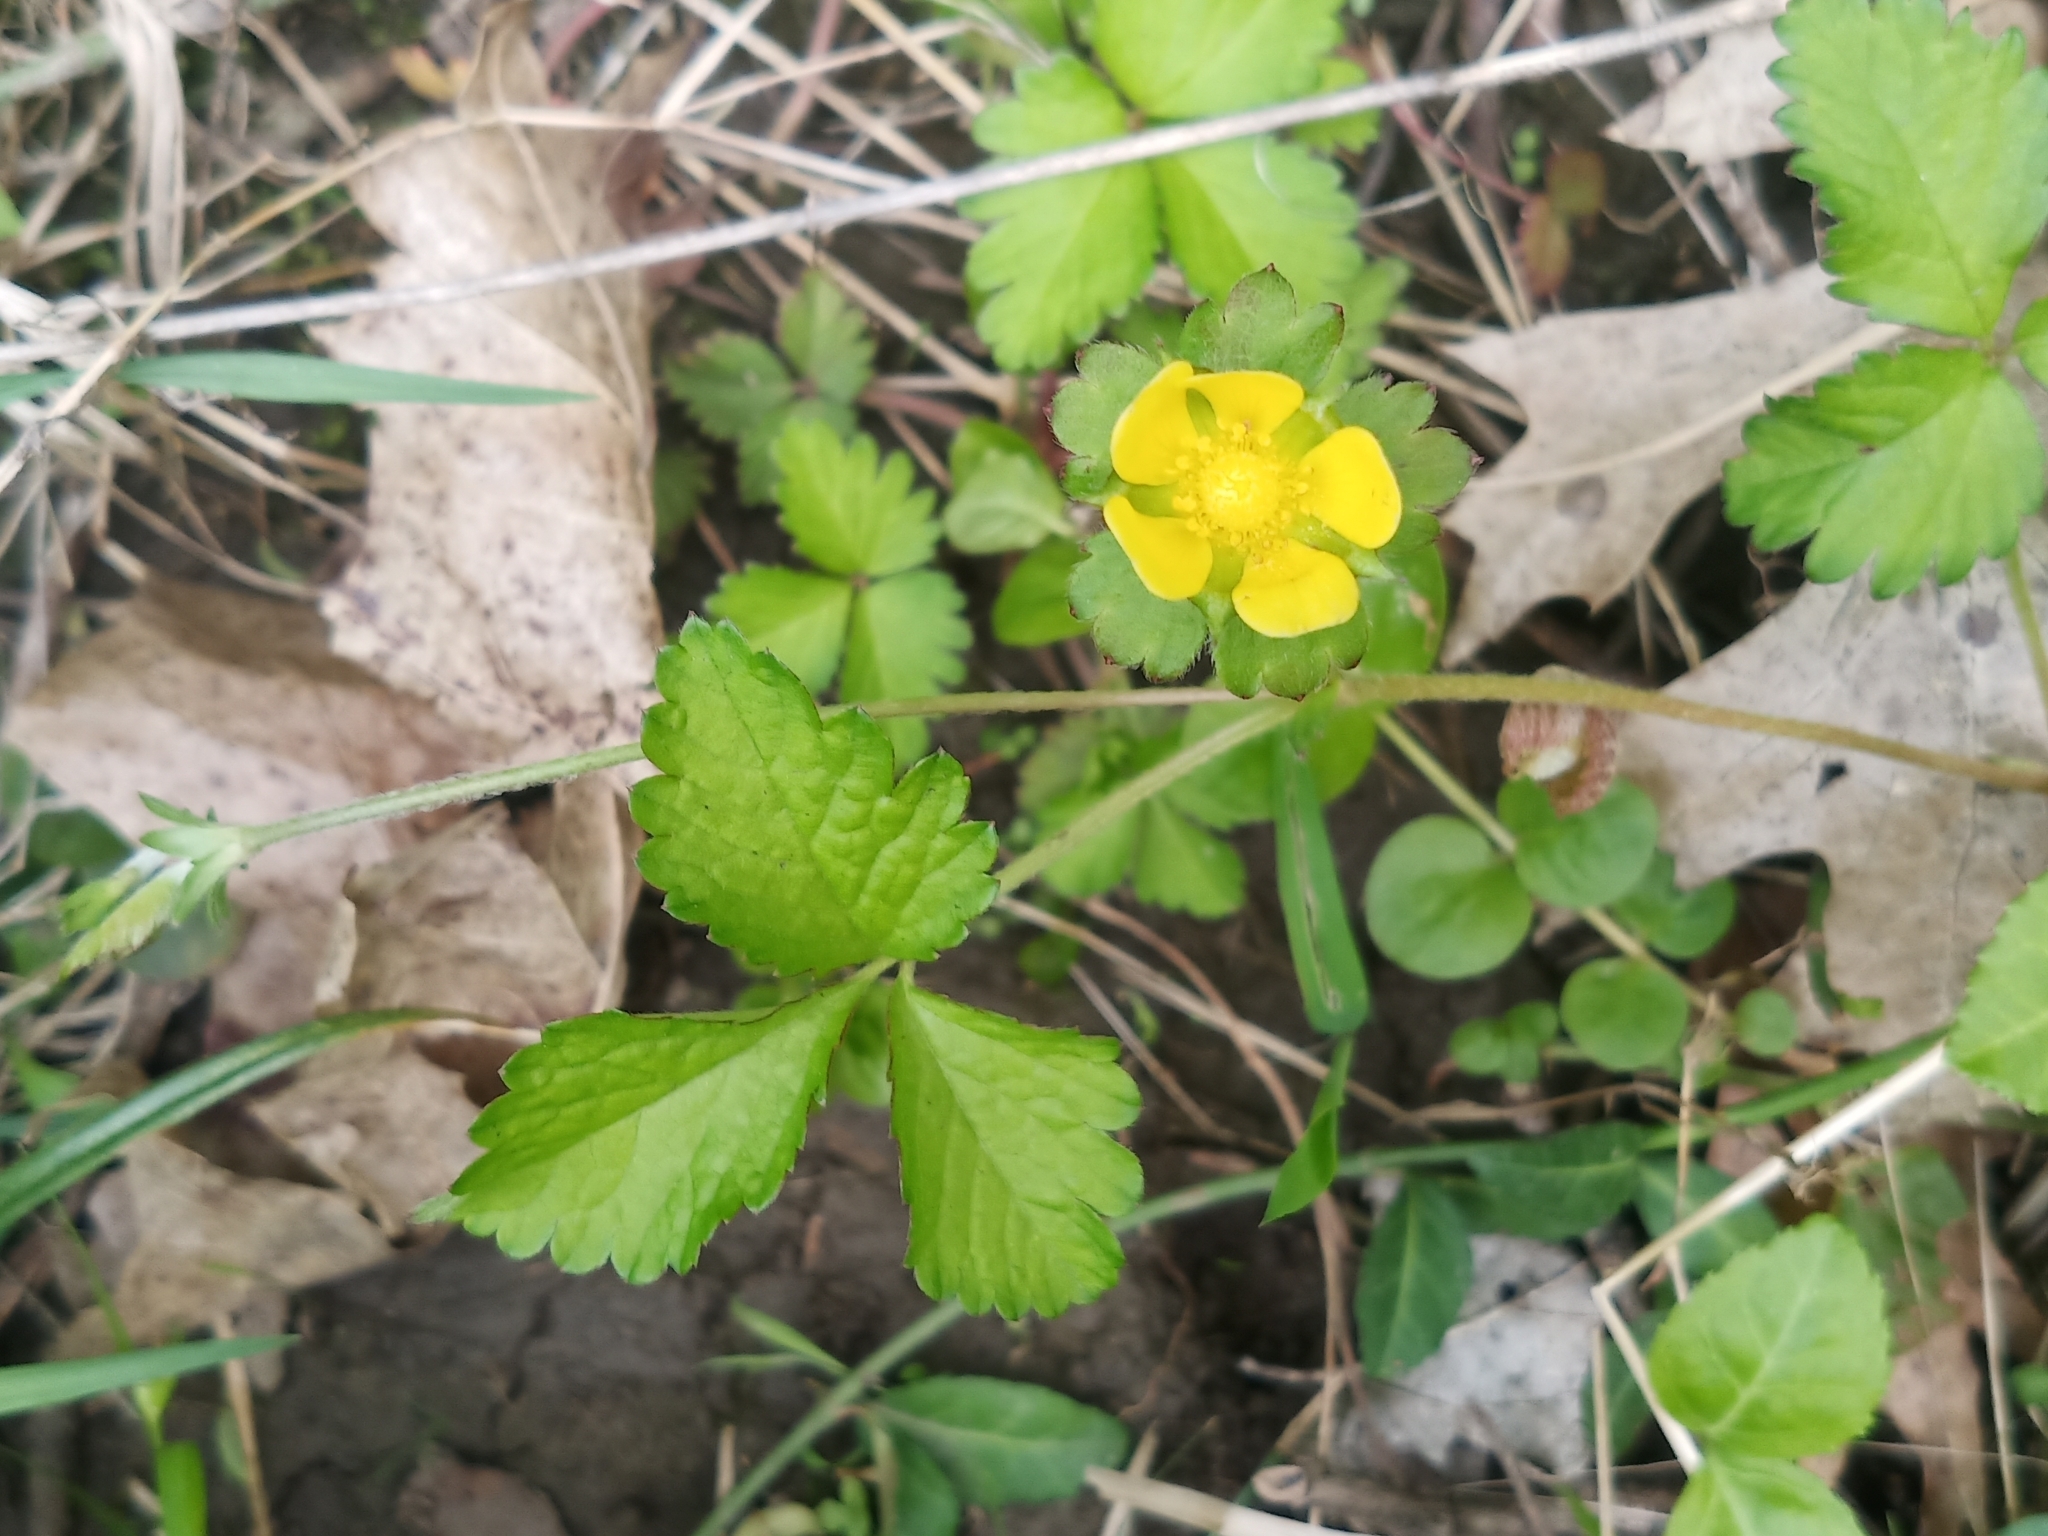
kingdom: Plantae
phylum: Tracheophyta
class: Magnoliopsida
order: Rosales
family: Rosaceae
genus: Potentilla
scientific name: Potentilla indica
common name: Yellow-flowered strawberry
